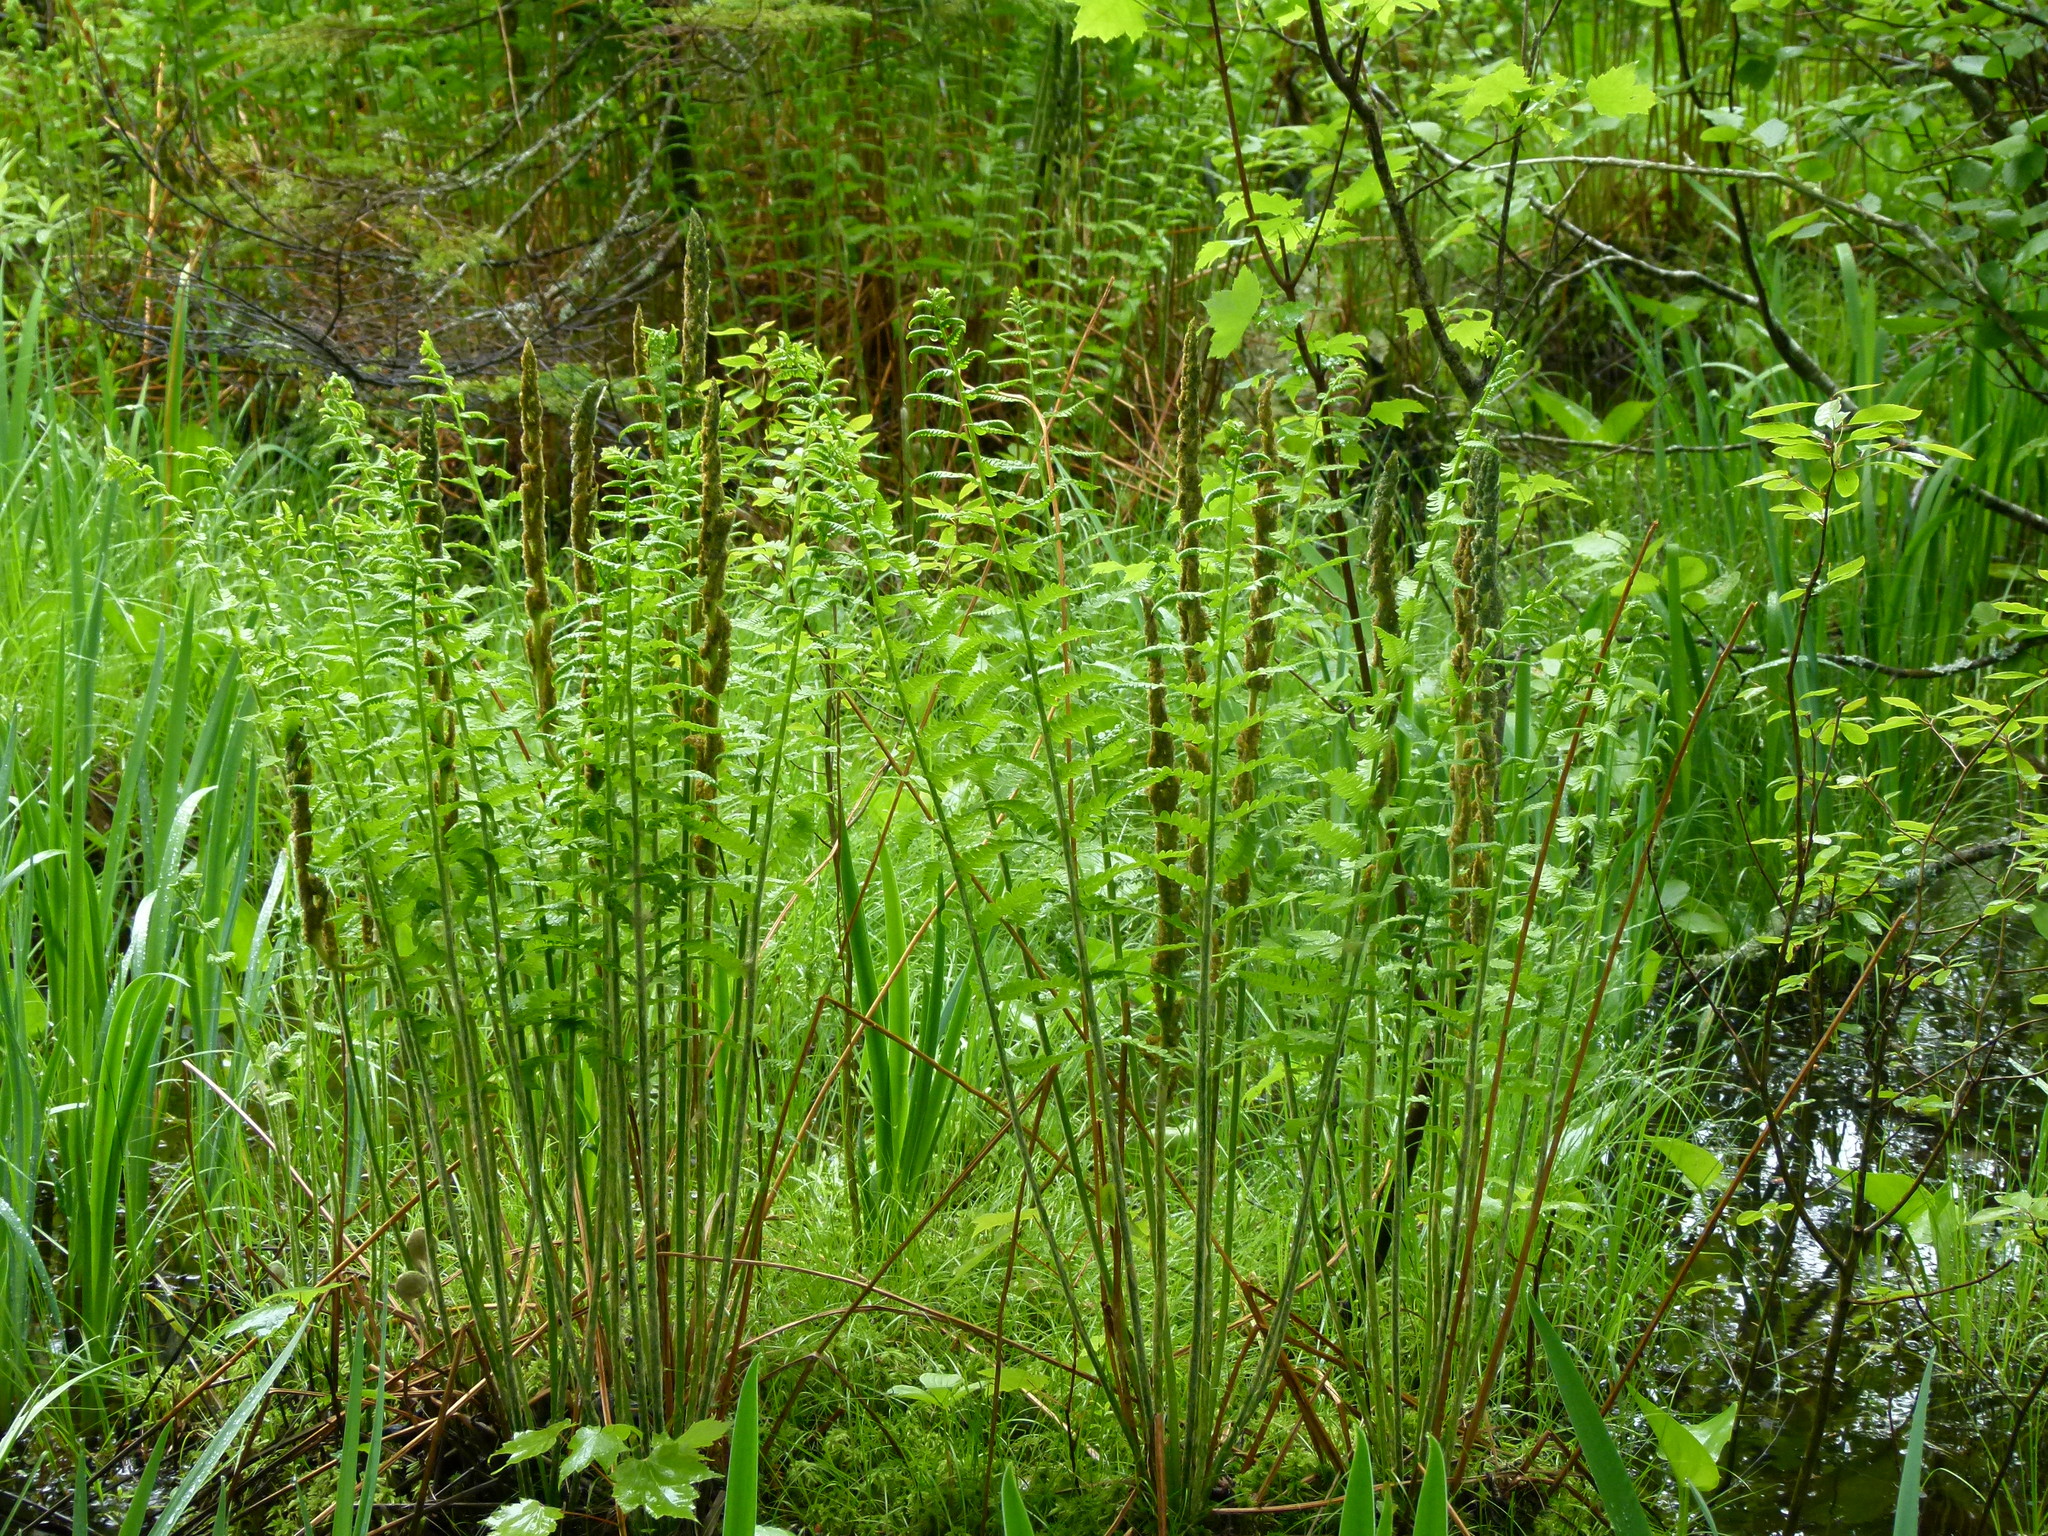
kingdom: Plantae
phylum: Tracheophyta
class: Polypodiopsida
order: Osmundales
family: Osmundaceae
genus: Osmundastrum
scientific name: Osmundastrum cinnamomeum
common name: Cinnamon fern
